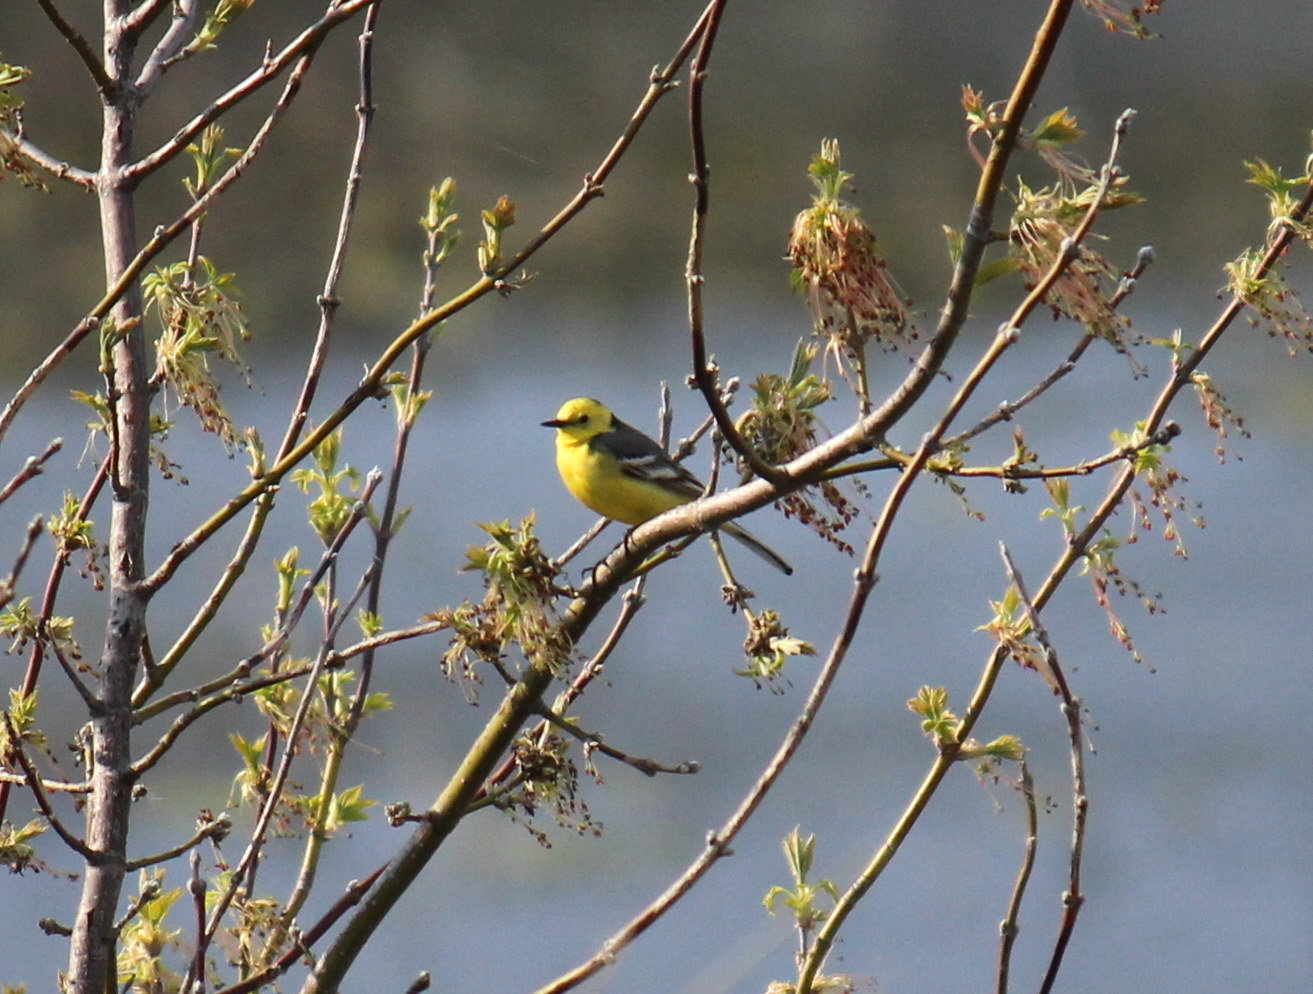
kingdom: Animalia
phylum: Chordata
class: Aves
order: Passeriformes
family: Motacillidae
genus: Motacilla
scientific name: Motacilla citreola
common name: Citrine wagtail
